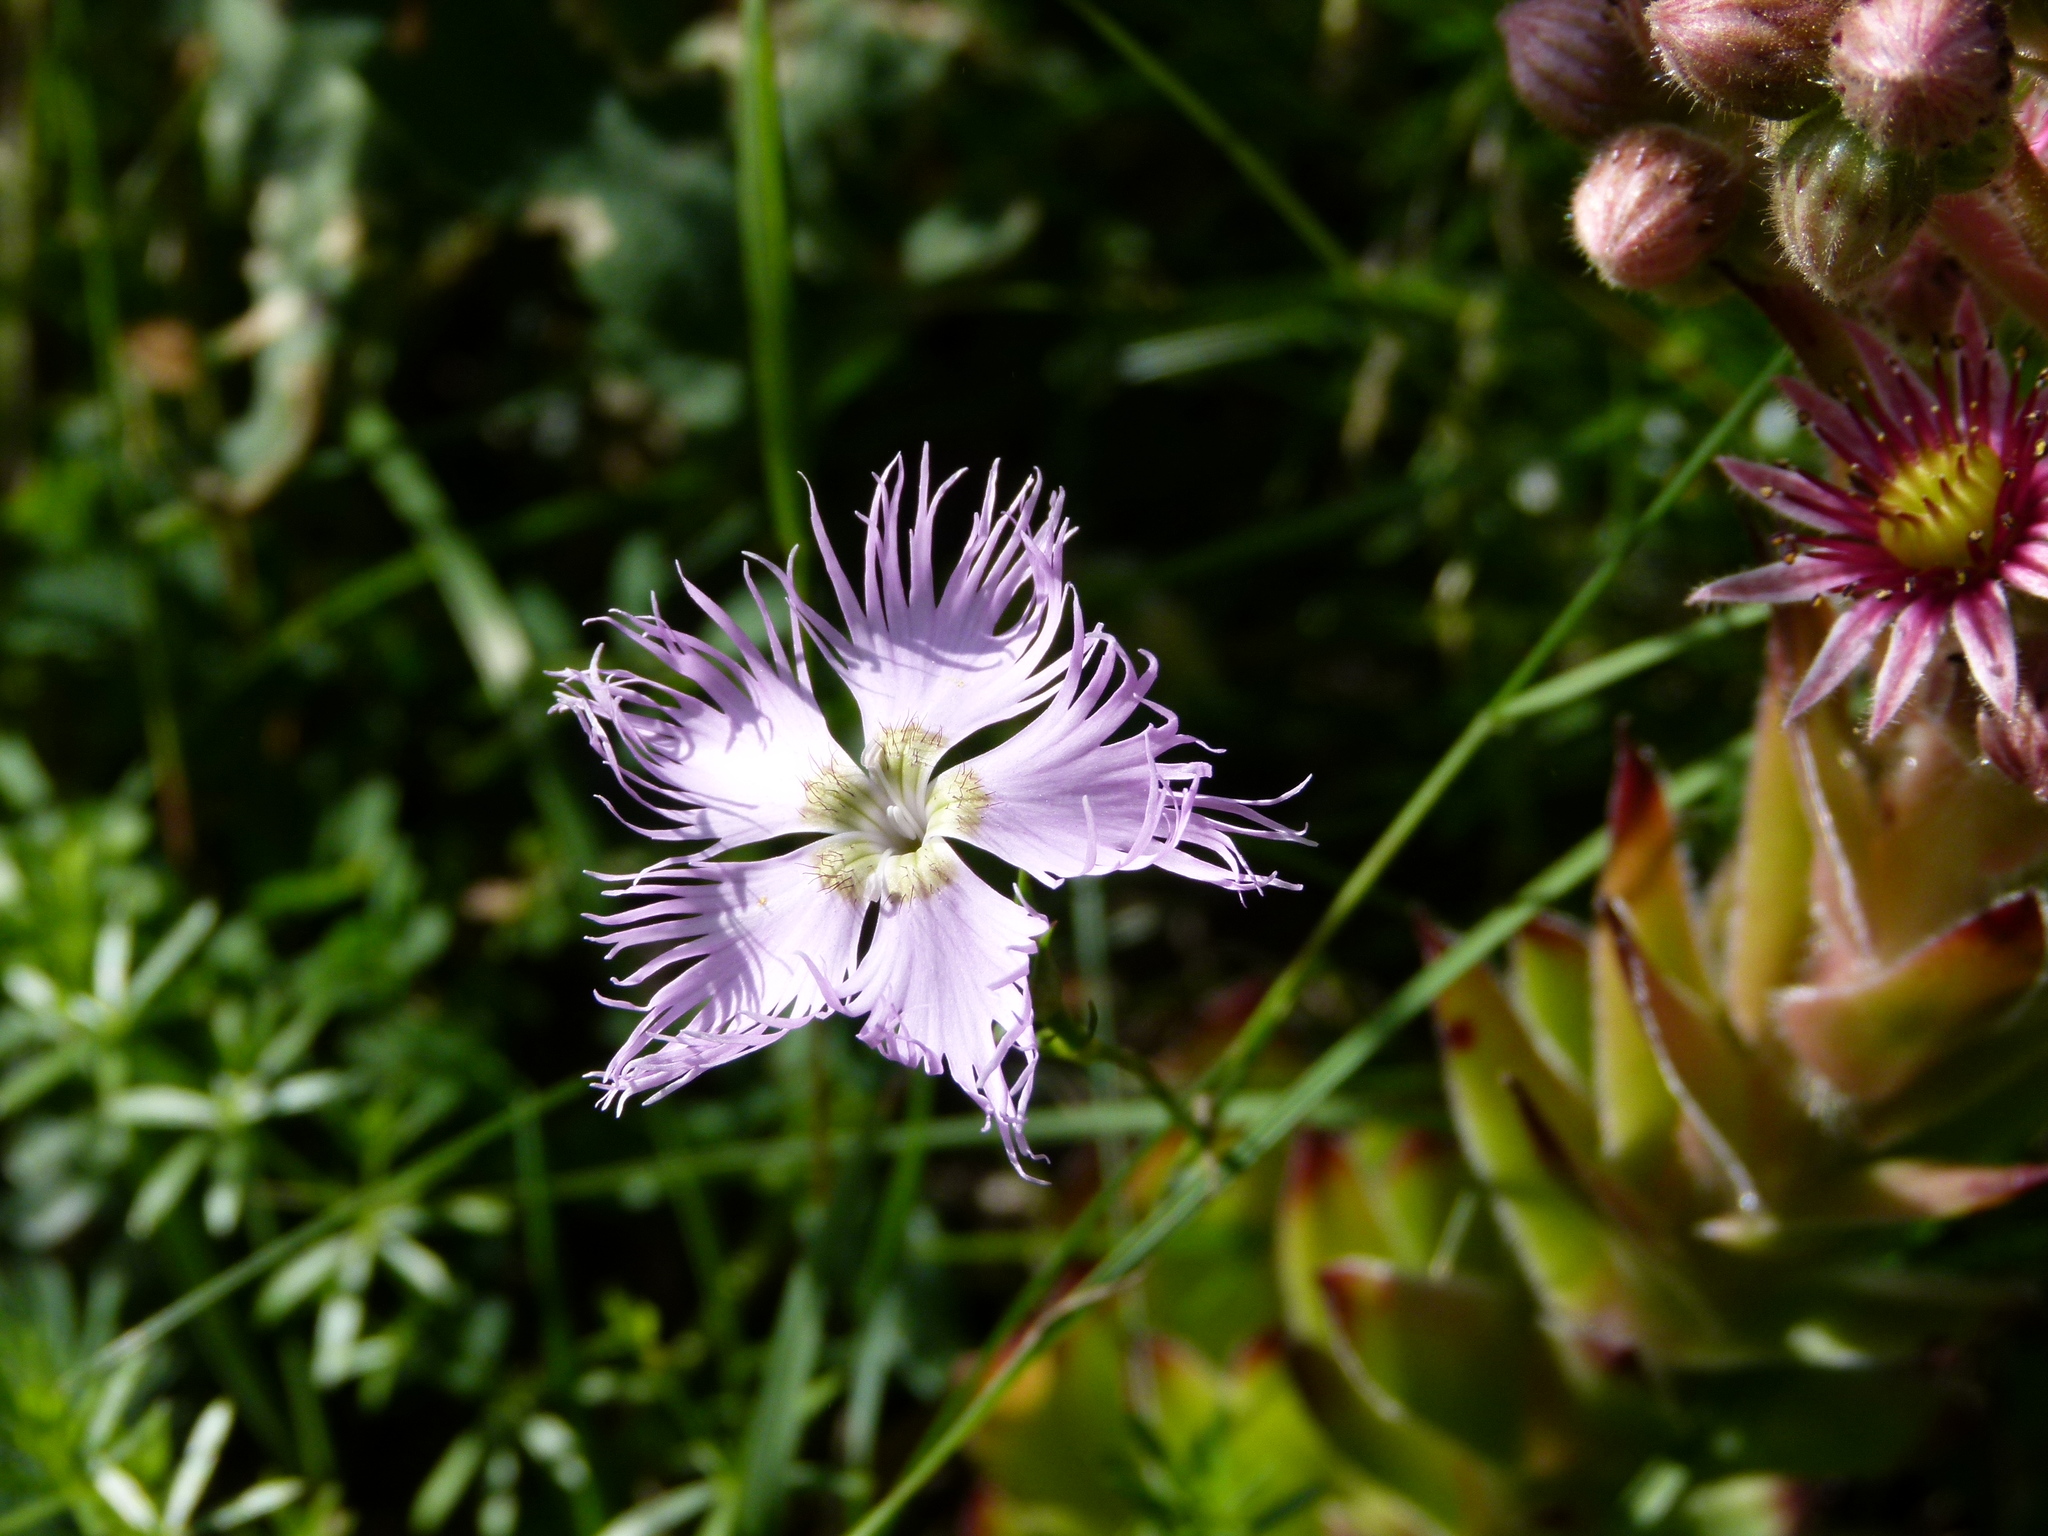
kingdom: Plantae
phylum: Tracheophyta
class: Magnoliopsida
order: Caryophyllales
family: Caryophyllaceae
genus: Dianthus
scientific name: Dianthus hyssopifolius
